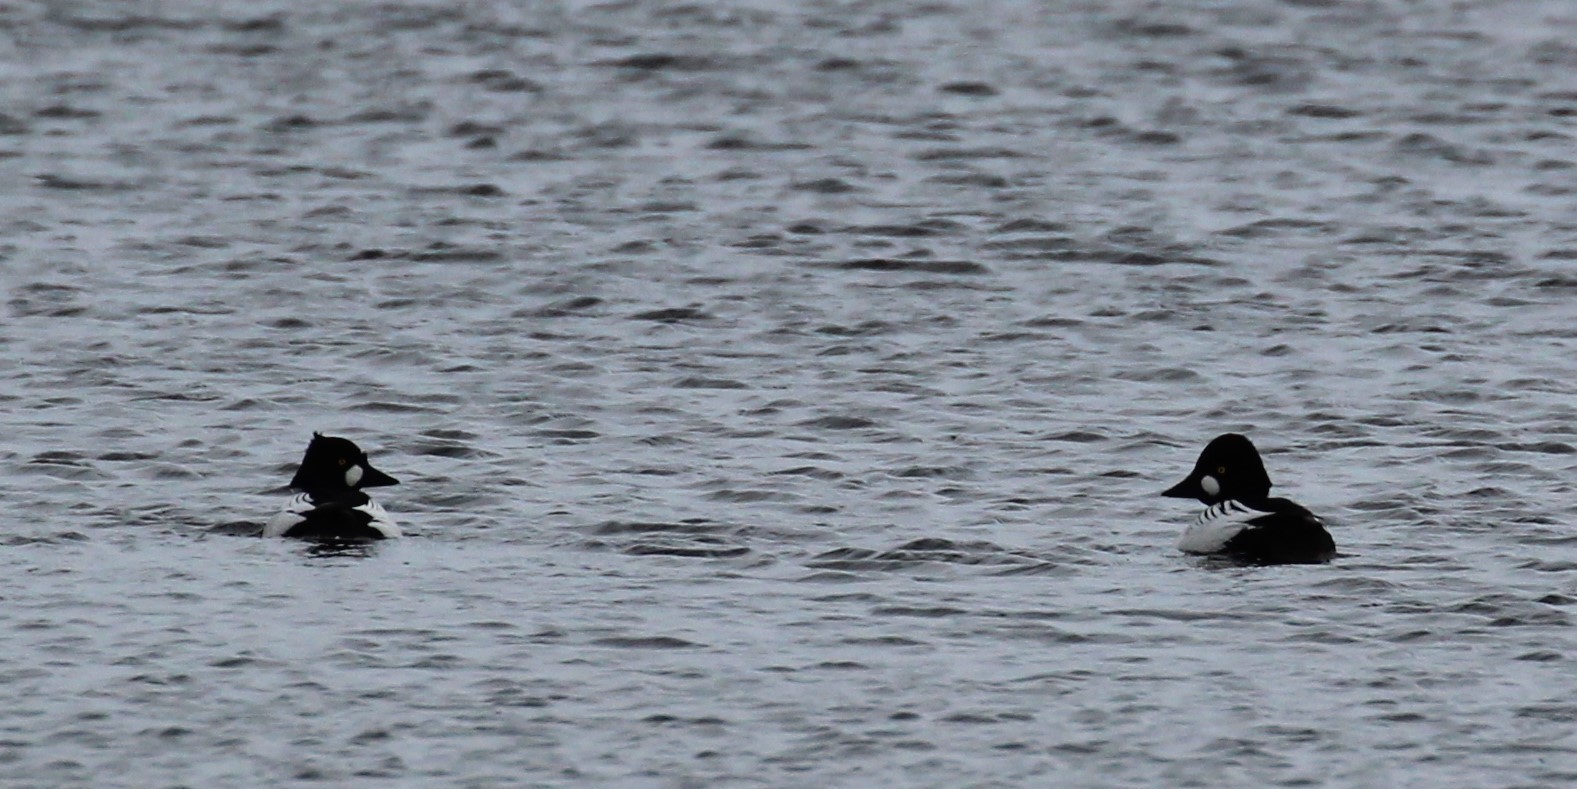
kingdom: Animalia
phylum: Chordata
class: Aves
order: Anseriformes
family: Anatidae
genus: Bucephala
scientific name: Bucephala clangula
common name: Common goldeneye
